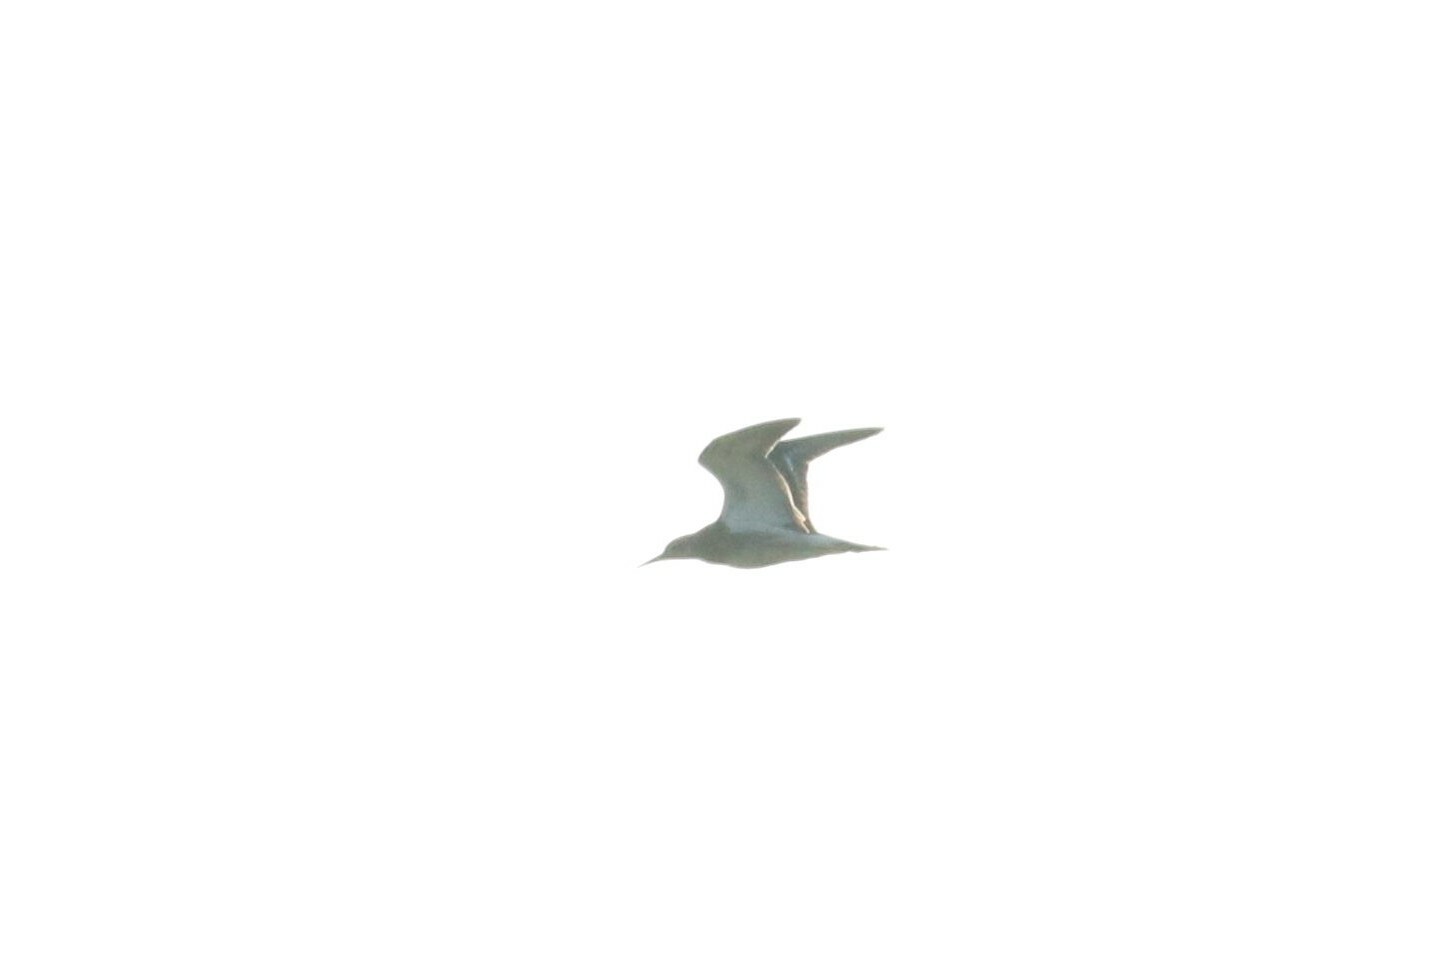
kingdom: Animalia
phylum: Chordata
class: Aves
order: Charadriiformes
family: Scolopacidae
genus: Calidris
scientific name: Calidris pugnax
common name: Ruff
